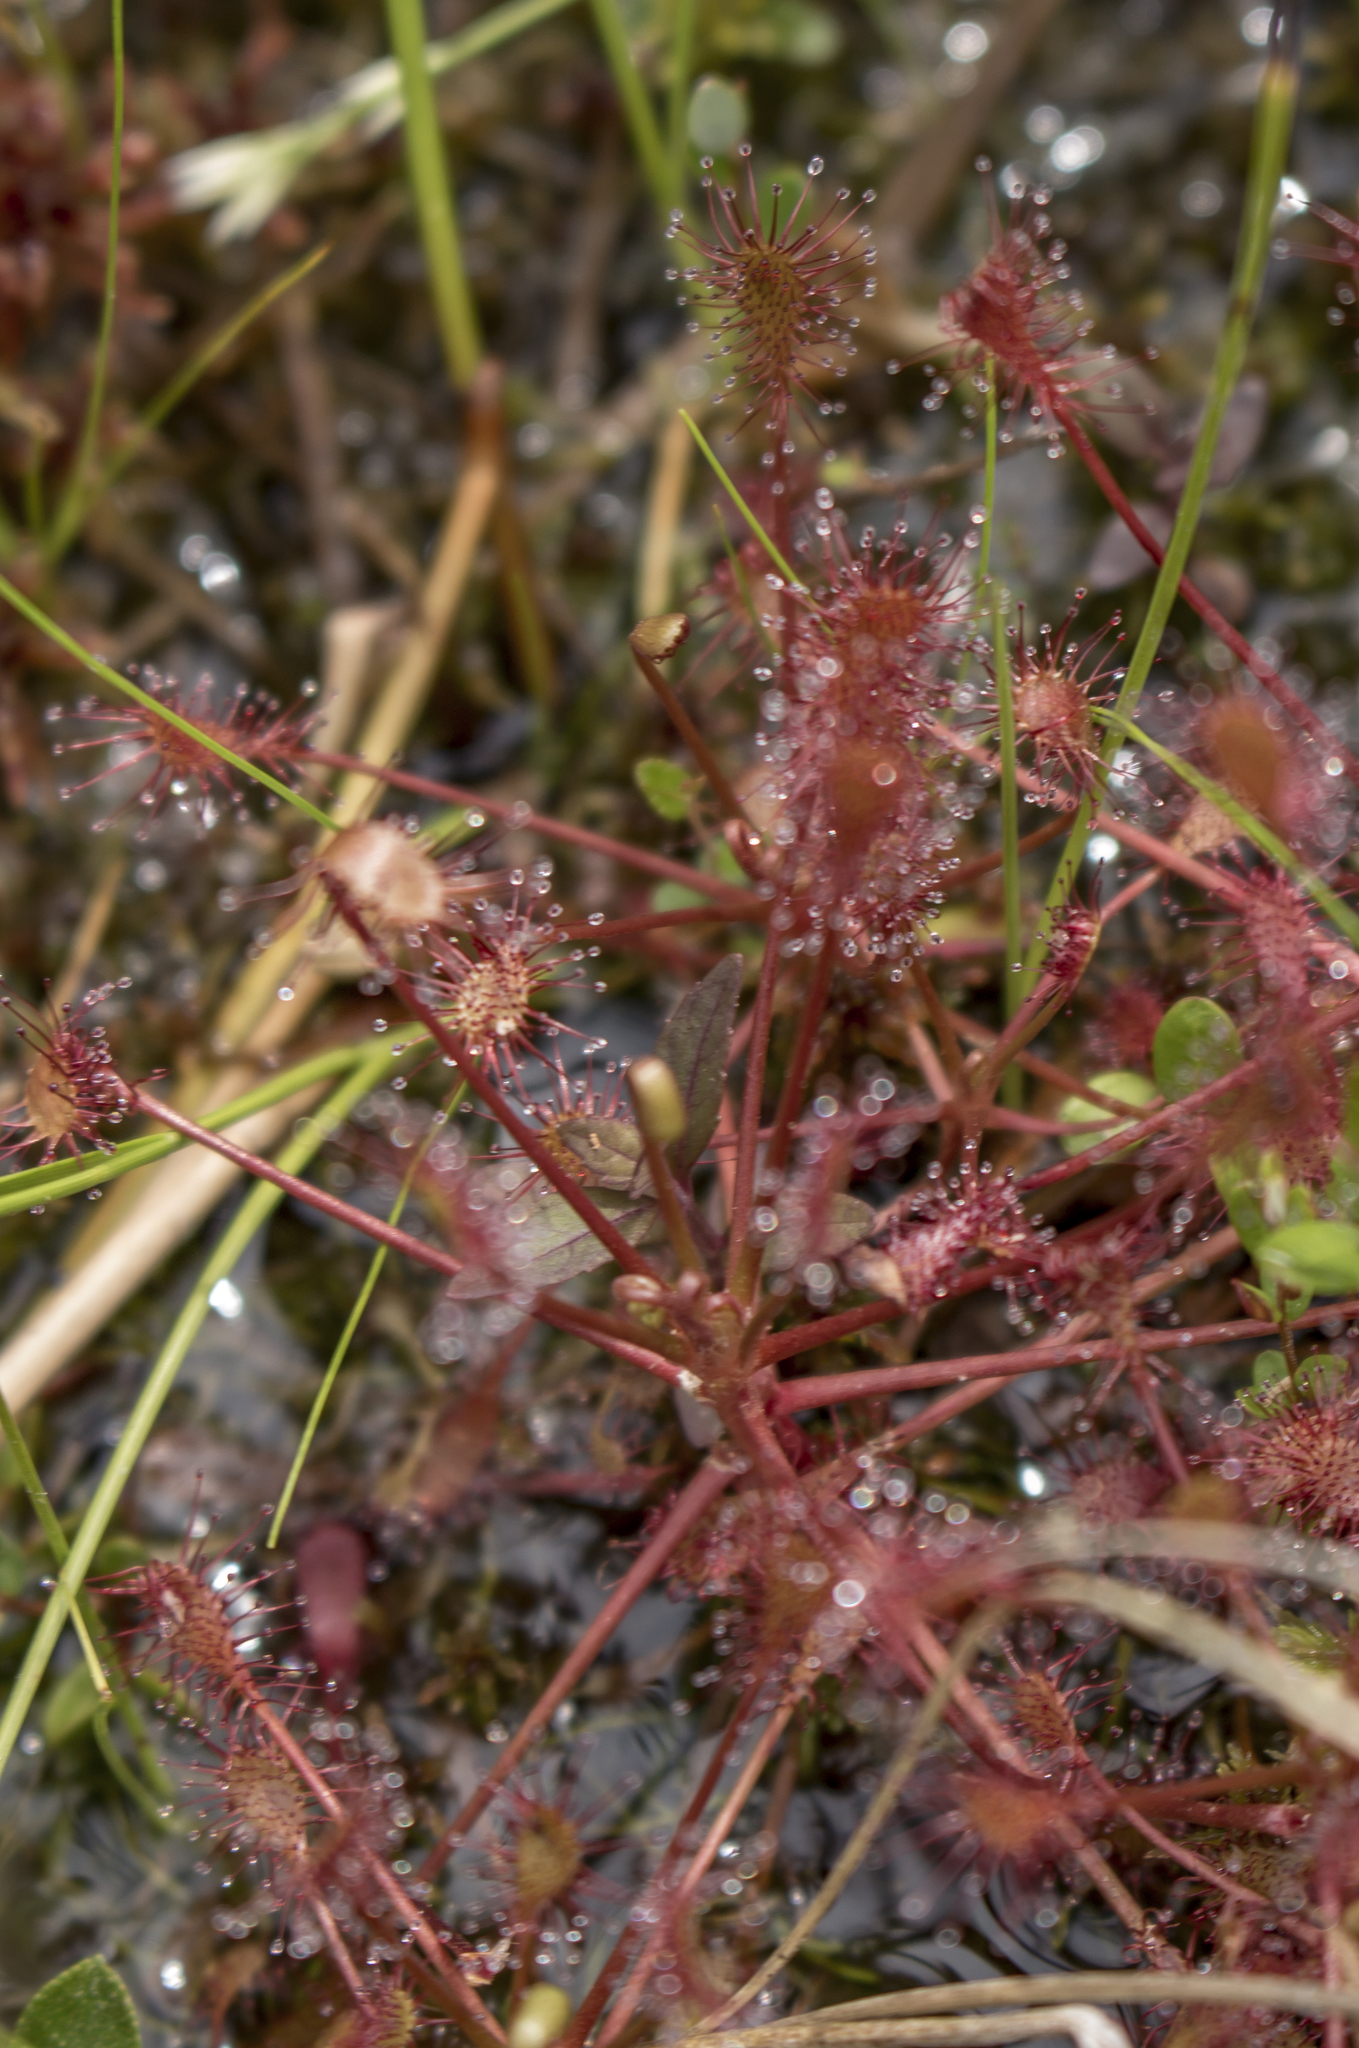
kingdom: Plantae
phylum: Tracheophyta
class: Magnoliopsida
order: Caryophyllales
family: Droseraceae
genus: Drosera
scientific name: Drosera intermedia
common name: Oblong-leaved sundew
